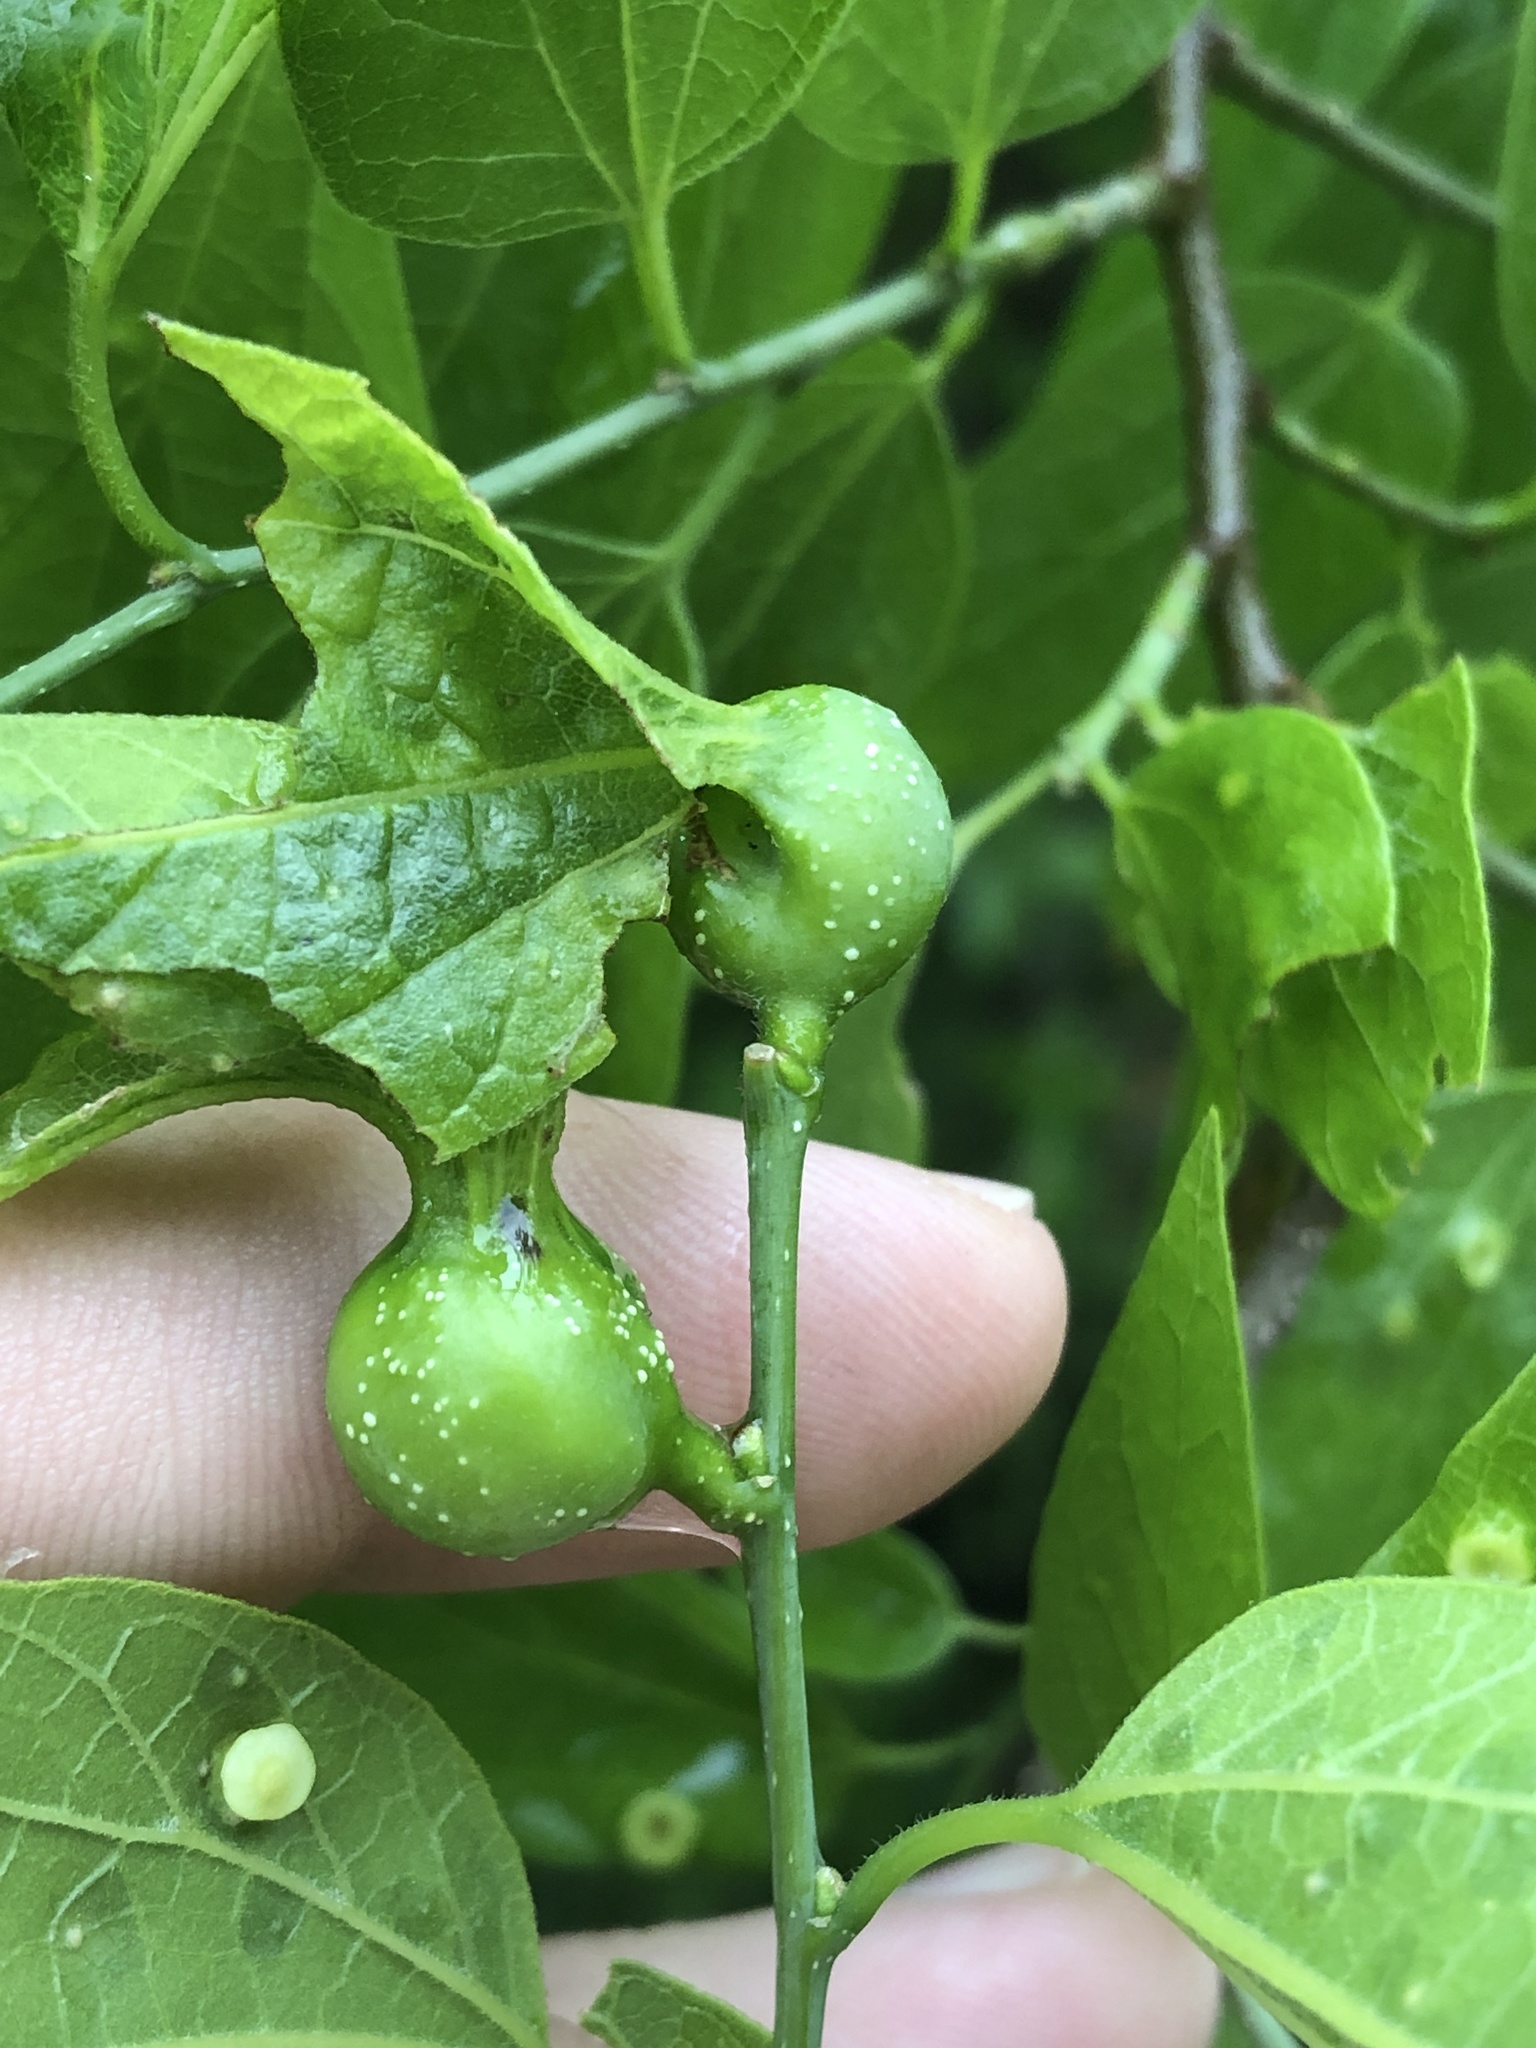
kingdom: Animalia
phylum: Arthropoda
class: Insecta
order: Hemiptera
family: Aphalaridae
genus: Pachypsylla
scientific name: Pachypsylla venusta
